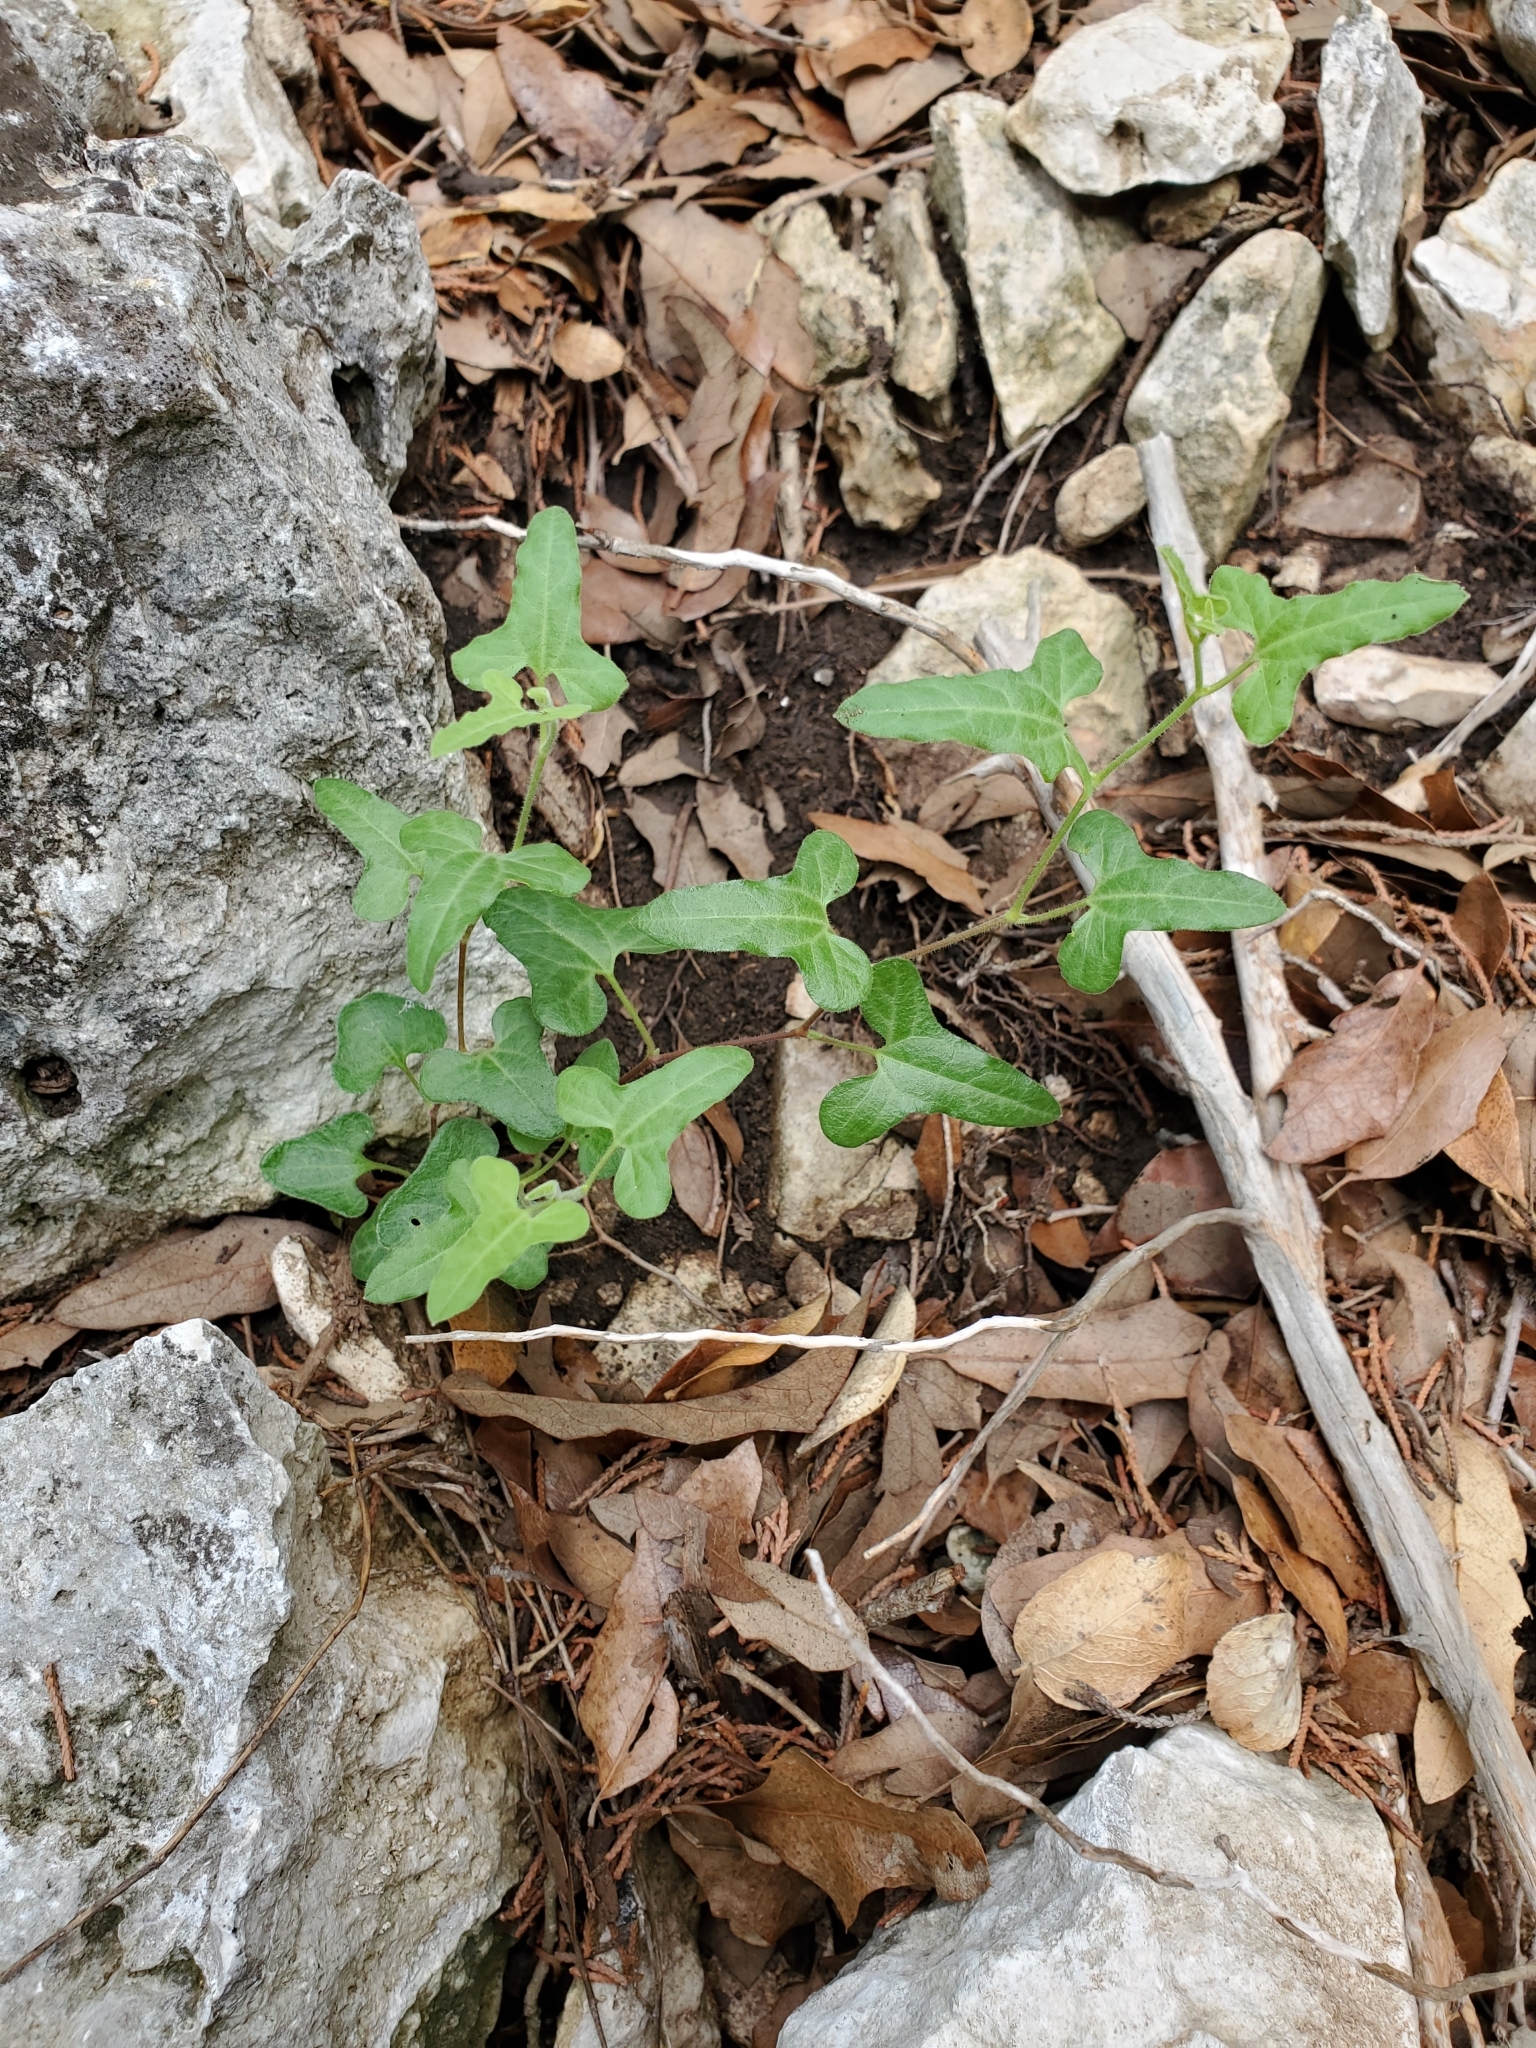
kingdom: Plantae
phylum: Tracheophyta
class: Magnoliopsida
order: Piperales
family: Aristolochiaceae
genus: Aristolochia
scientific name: Aristolochia coryi
